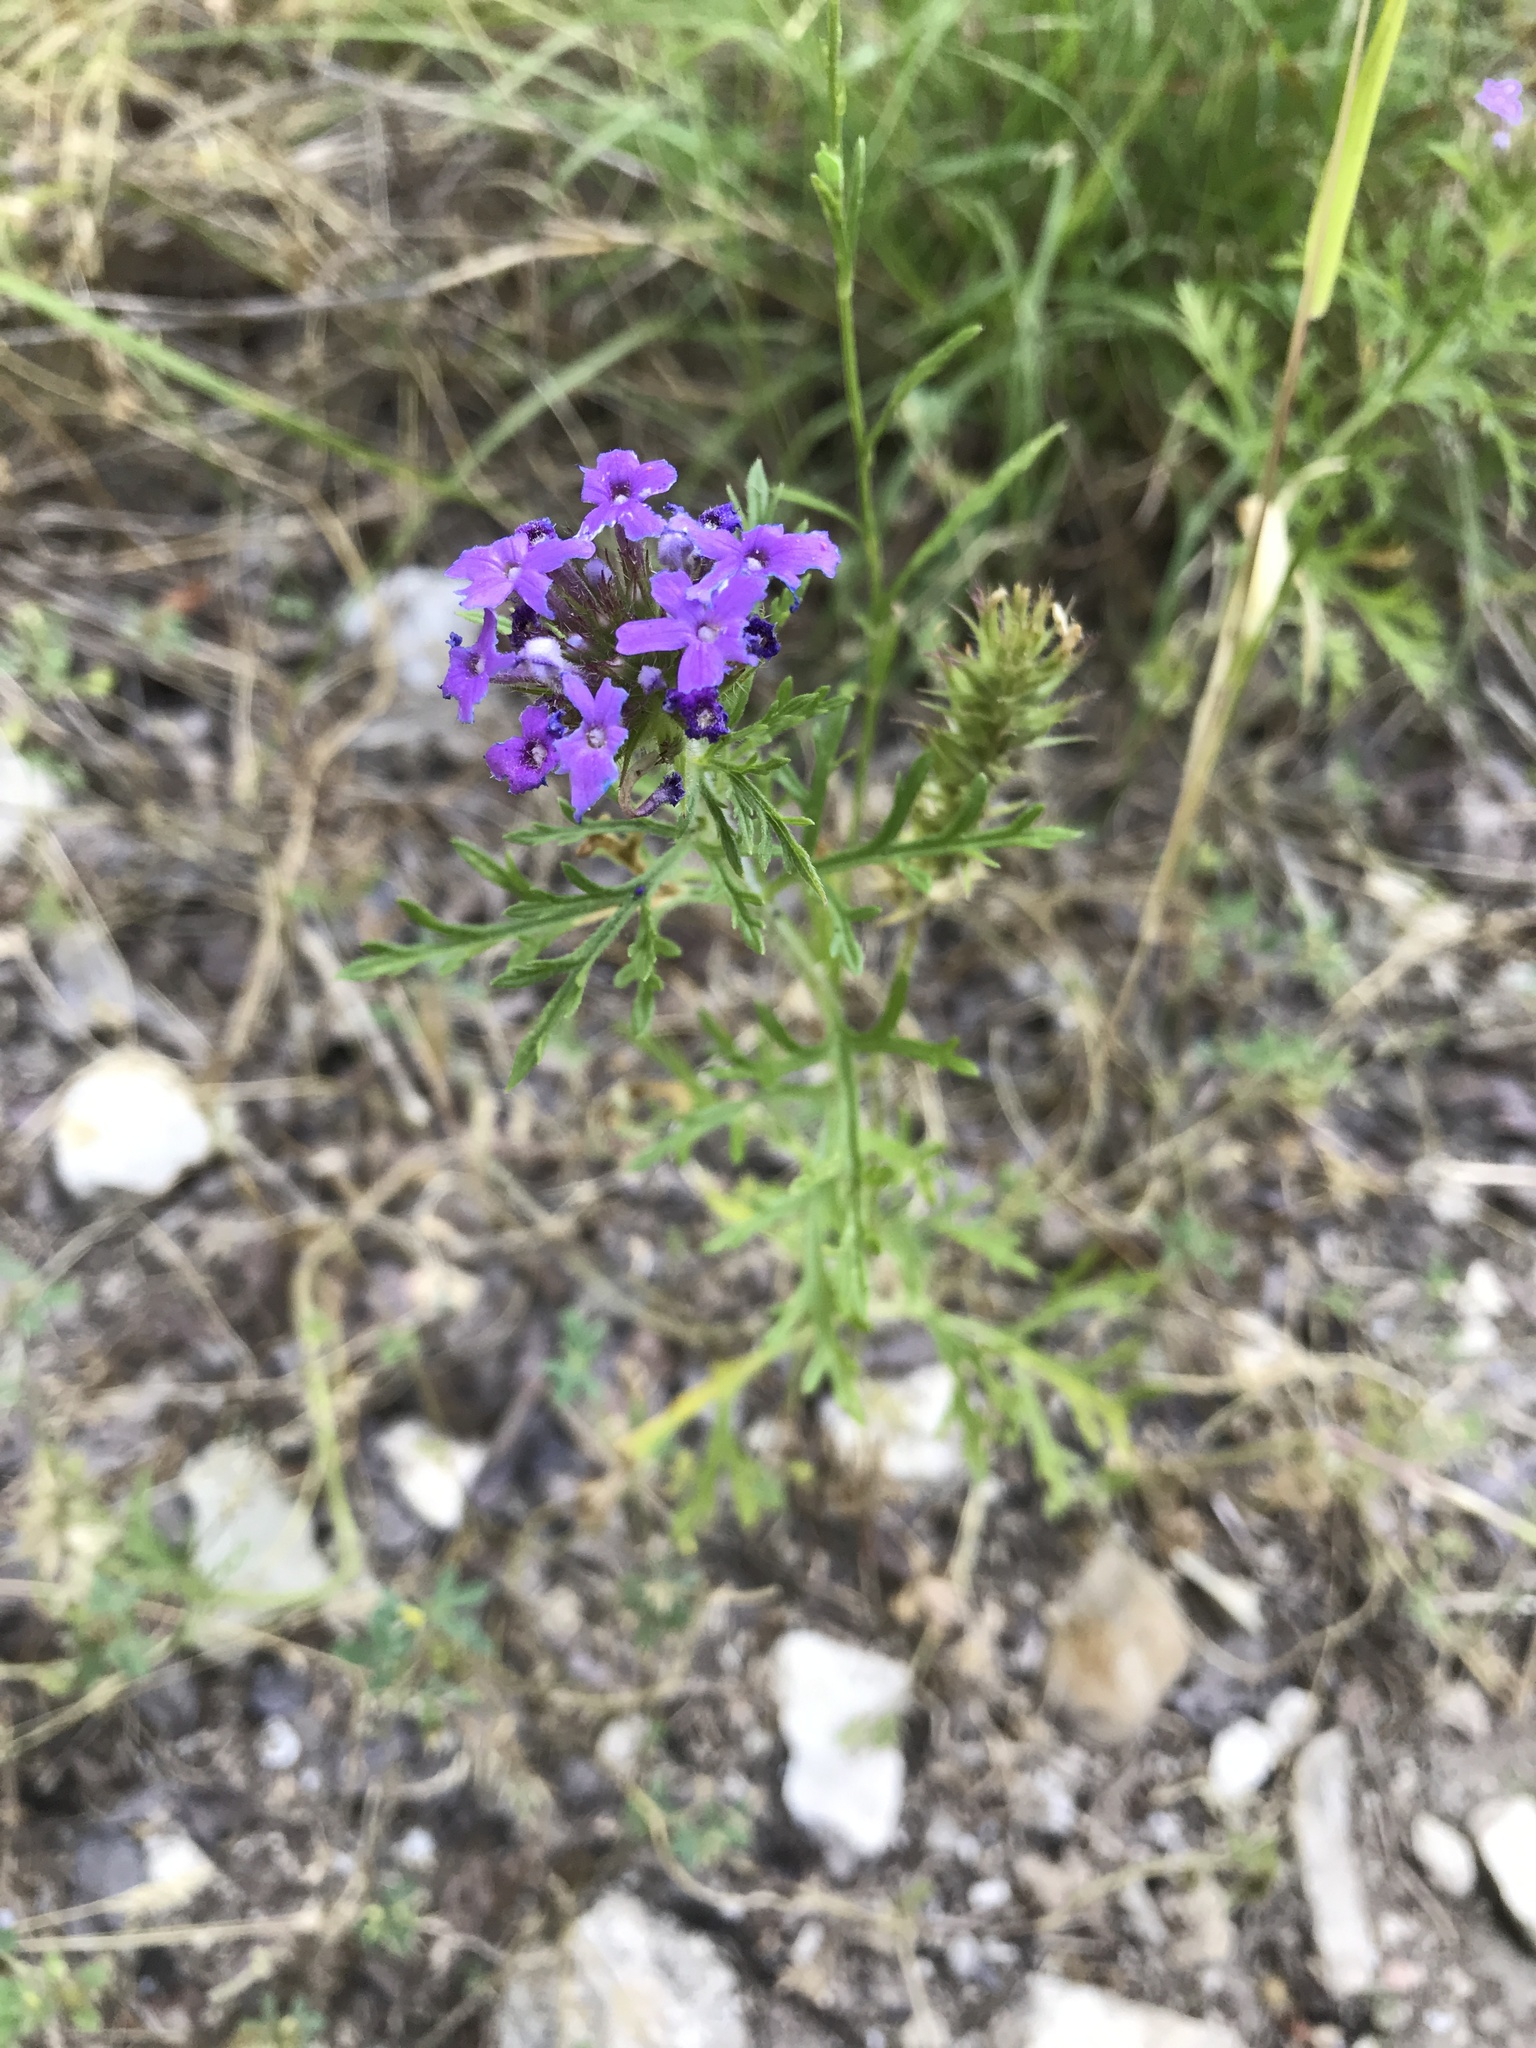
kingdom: Plantae
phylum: Tracheophyta
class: Magnoliopsida
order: Lamiales
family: Verbenaceae
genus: Verbena
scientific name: Verbena bipinnatifida
